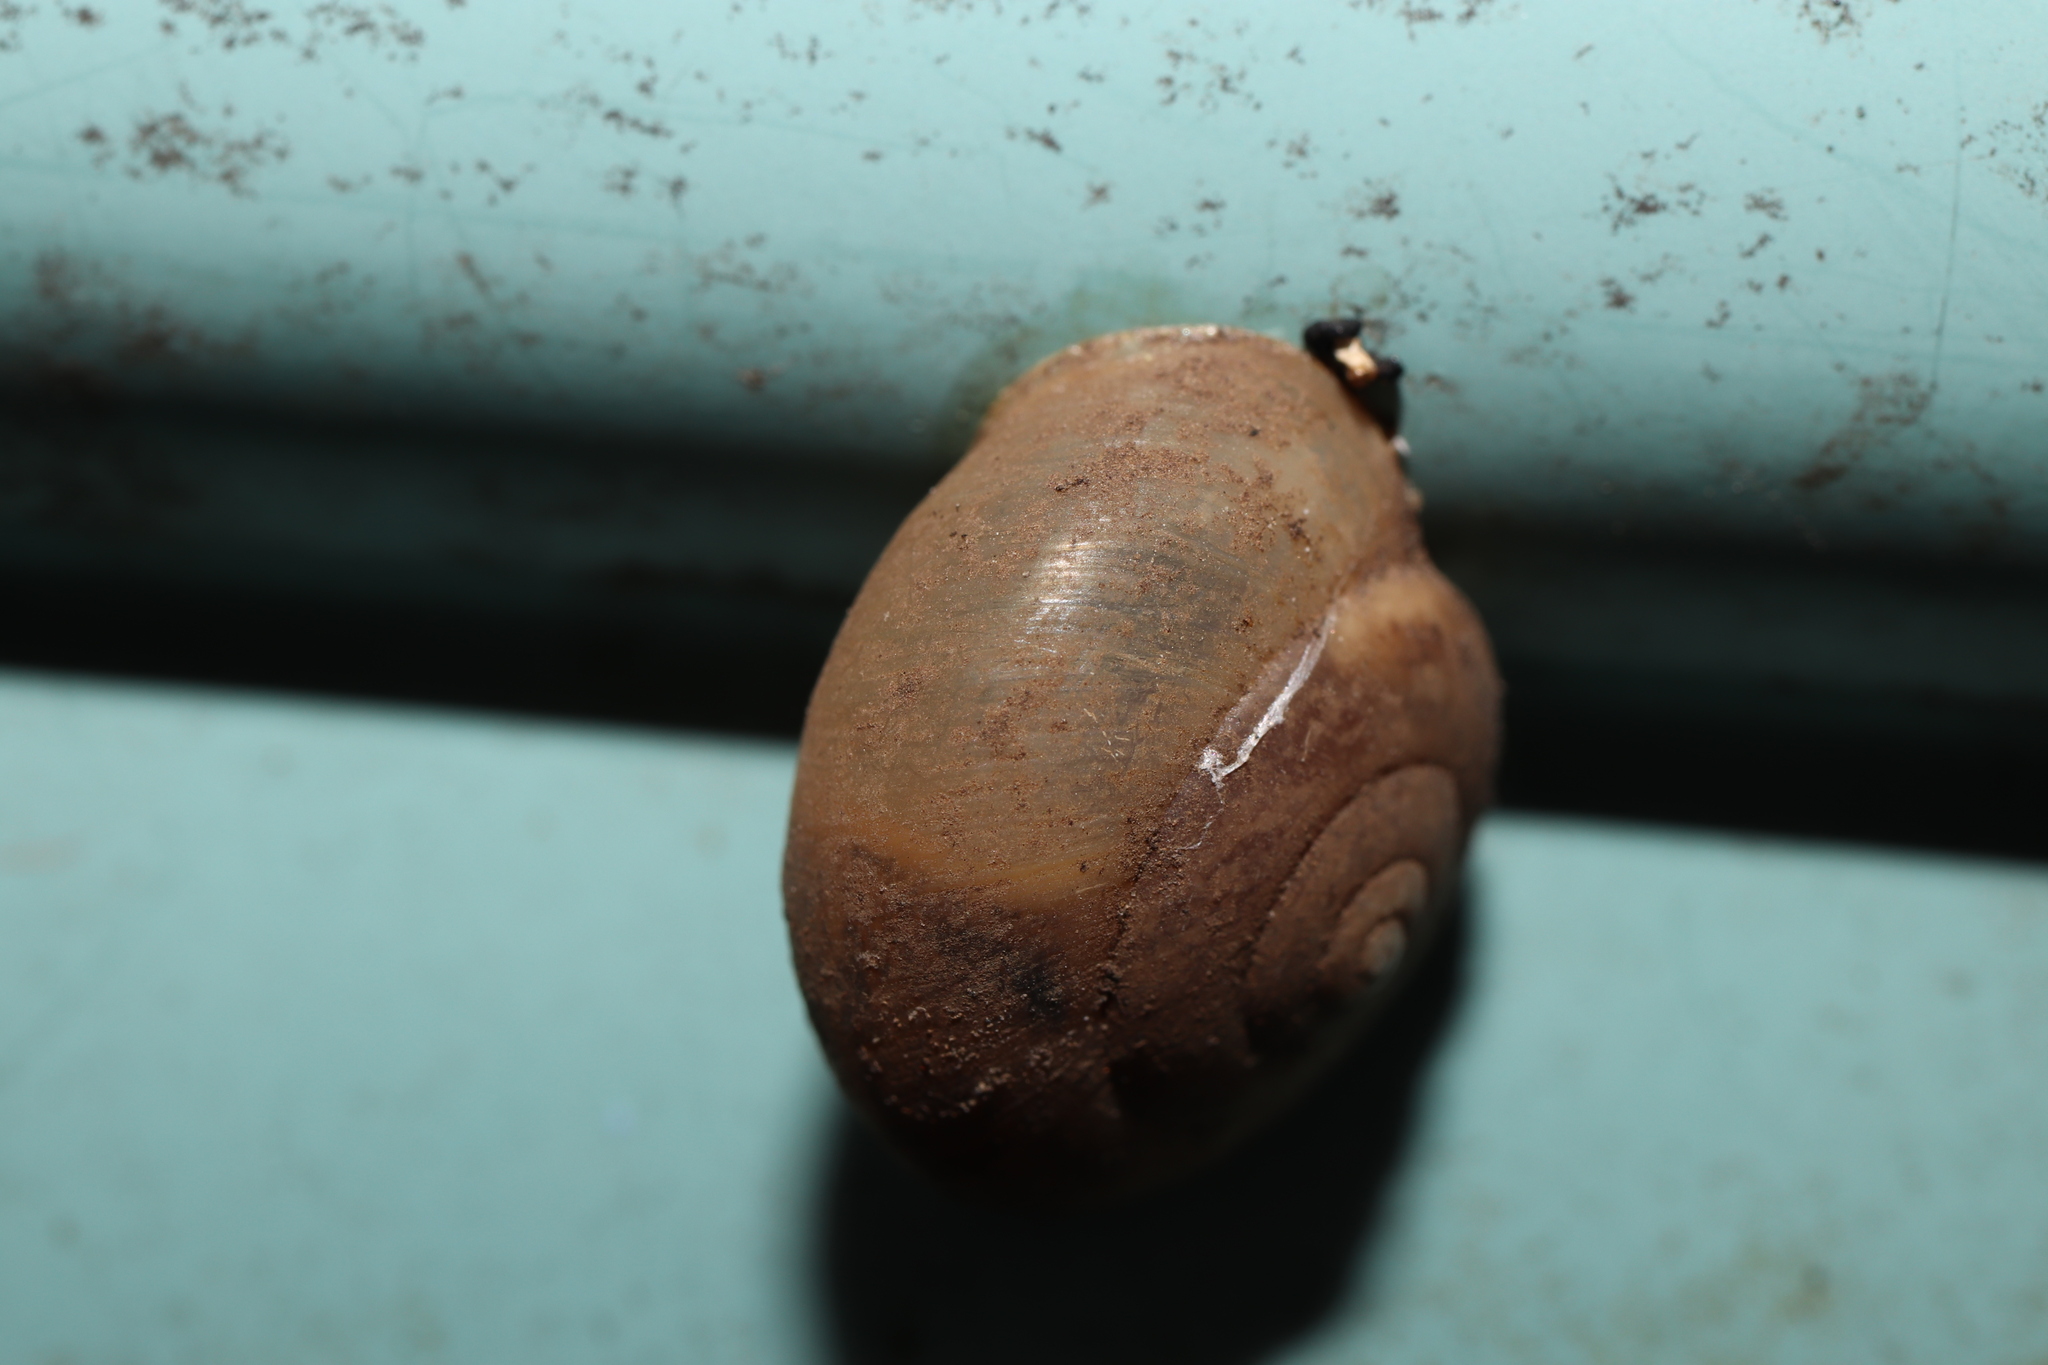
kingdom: Animalia
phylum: Mollusca
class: Gastropoda
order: Stylommatophora
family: Camaenidae
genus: Bradybaena
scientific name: Bradybaena similaris
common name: Asian trampsnail
